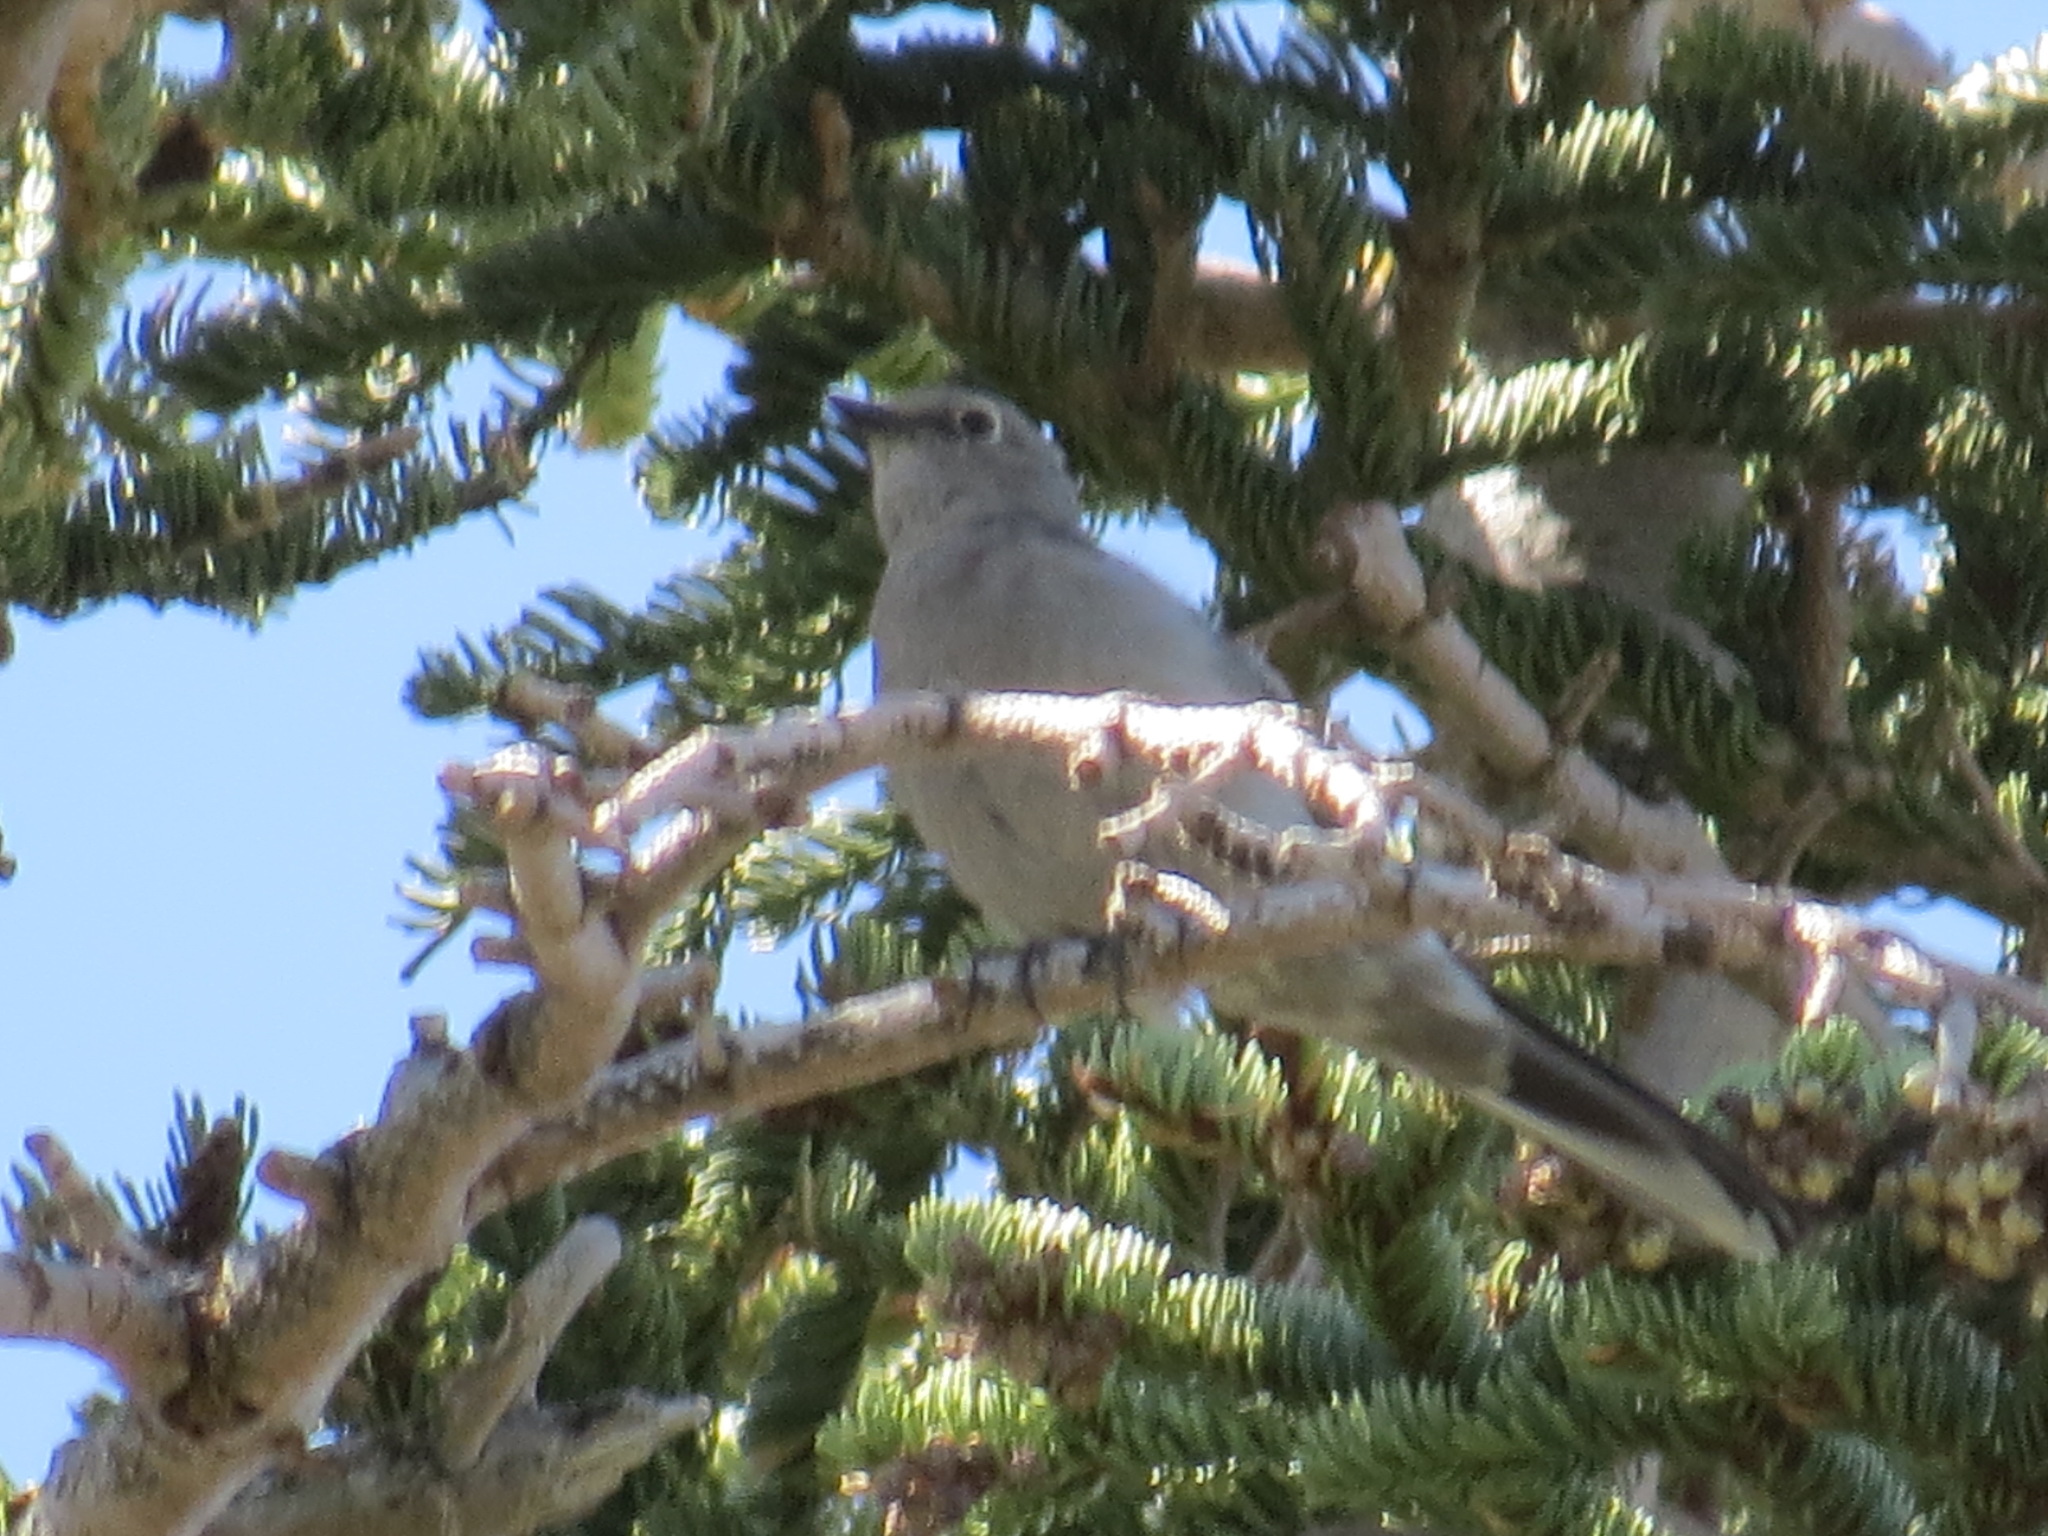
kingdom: Animalia
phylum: Chordata
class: Aves
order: Passeriformes
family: Turdidae
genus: Myadestes
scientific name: Myadestes townsendi
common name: Townsend's solitaire
